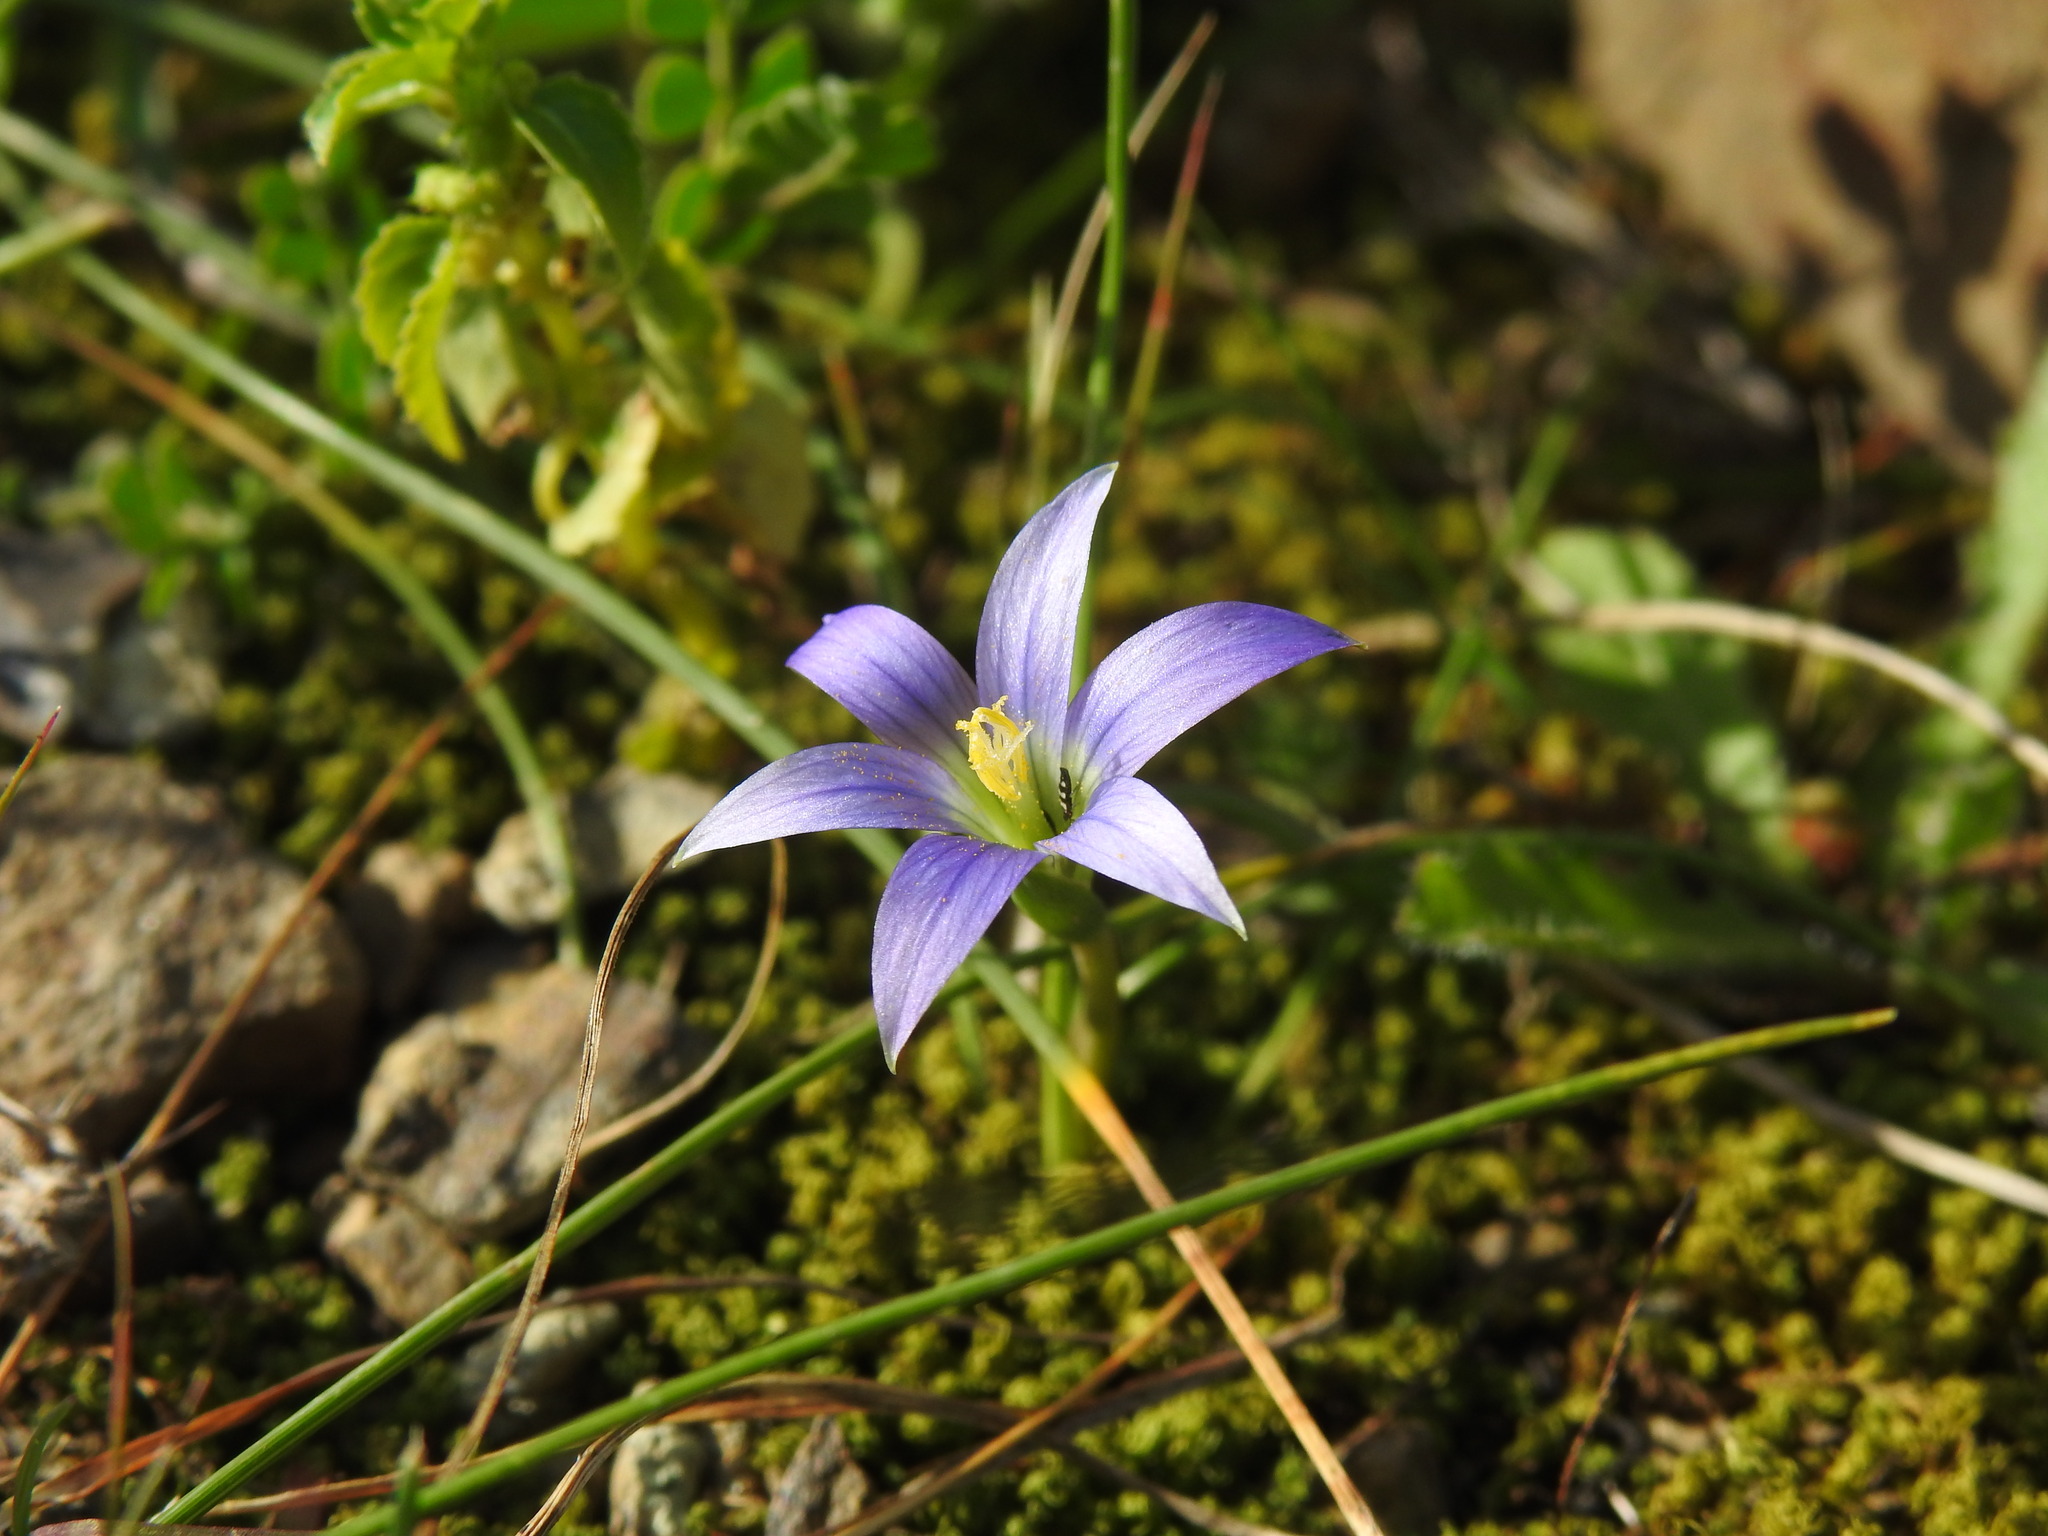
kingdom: Plantae
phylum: Tracheophyta
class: Liliopsida
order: Asparagales
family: Iridaceae
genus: Romulea
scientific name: Romulea ramiflora
